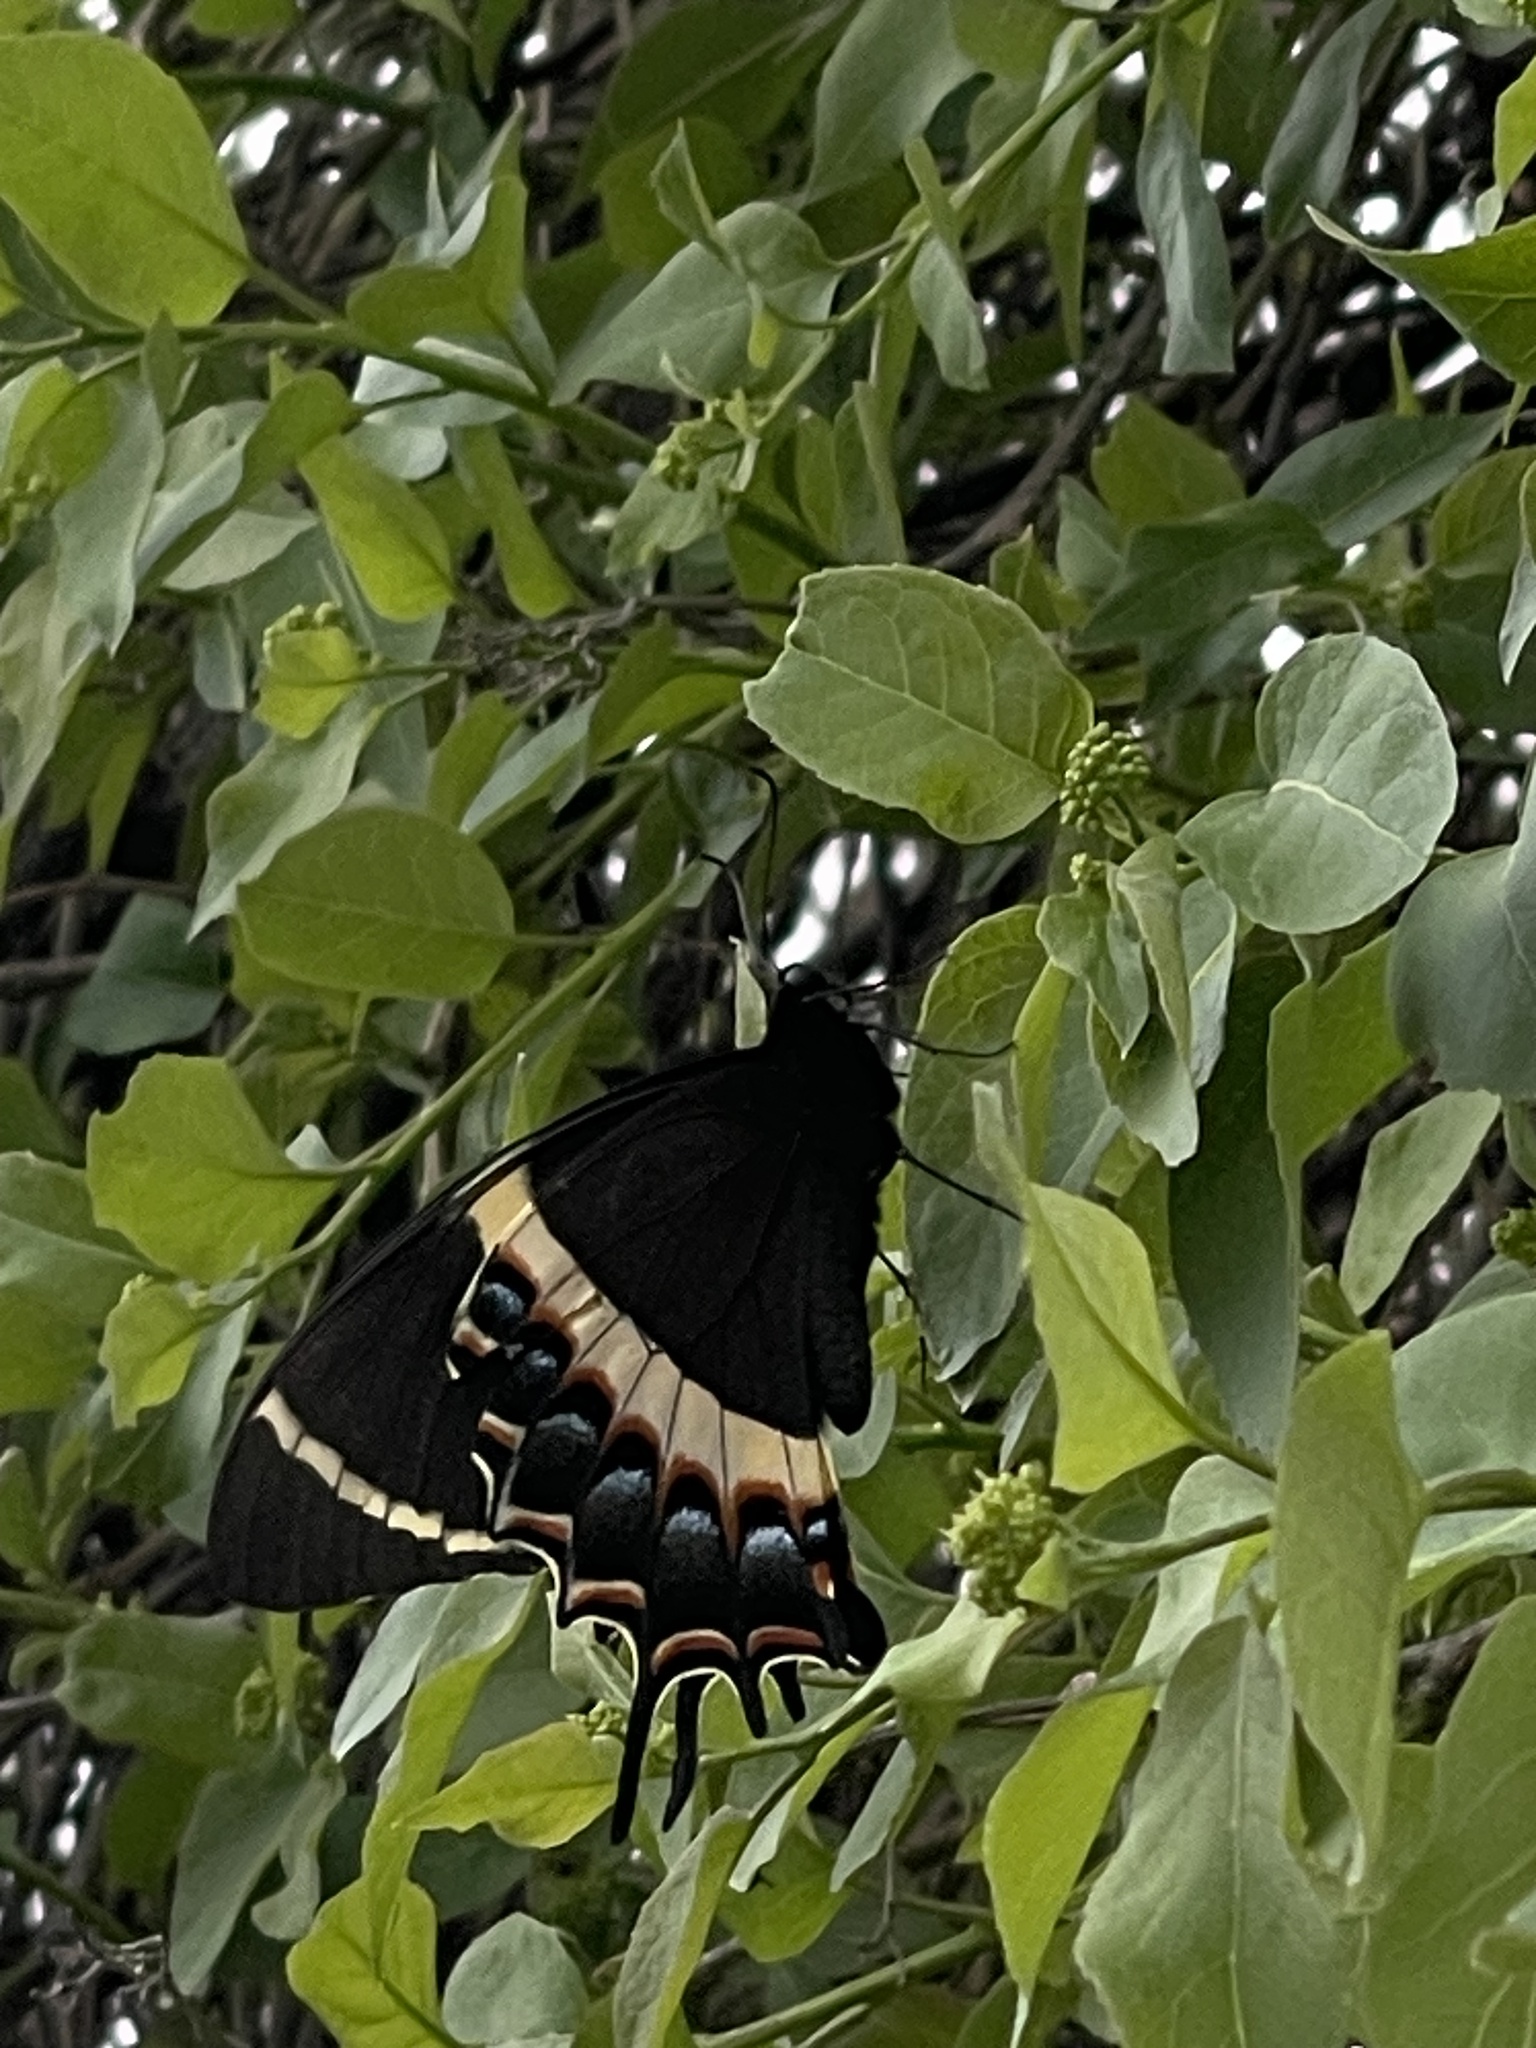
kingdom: Animalia
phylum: Arthropoda
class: Insecta
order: Lepidoptera
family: Papilionidae
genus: Papilio
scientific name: Papilio garamas
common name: Magnificent swallowtail
